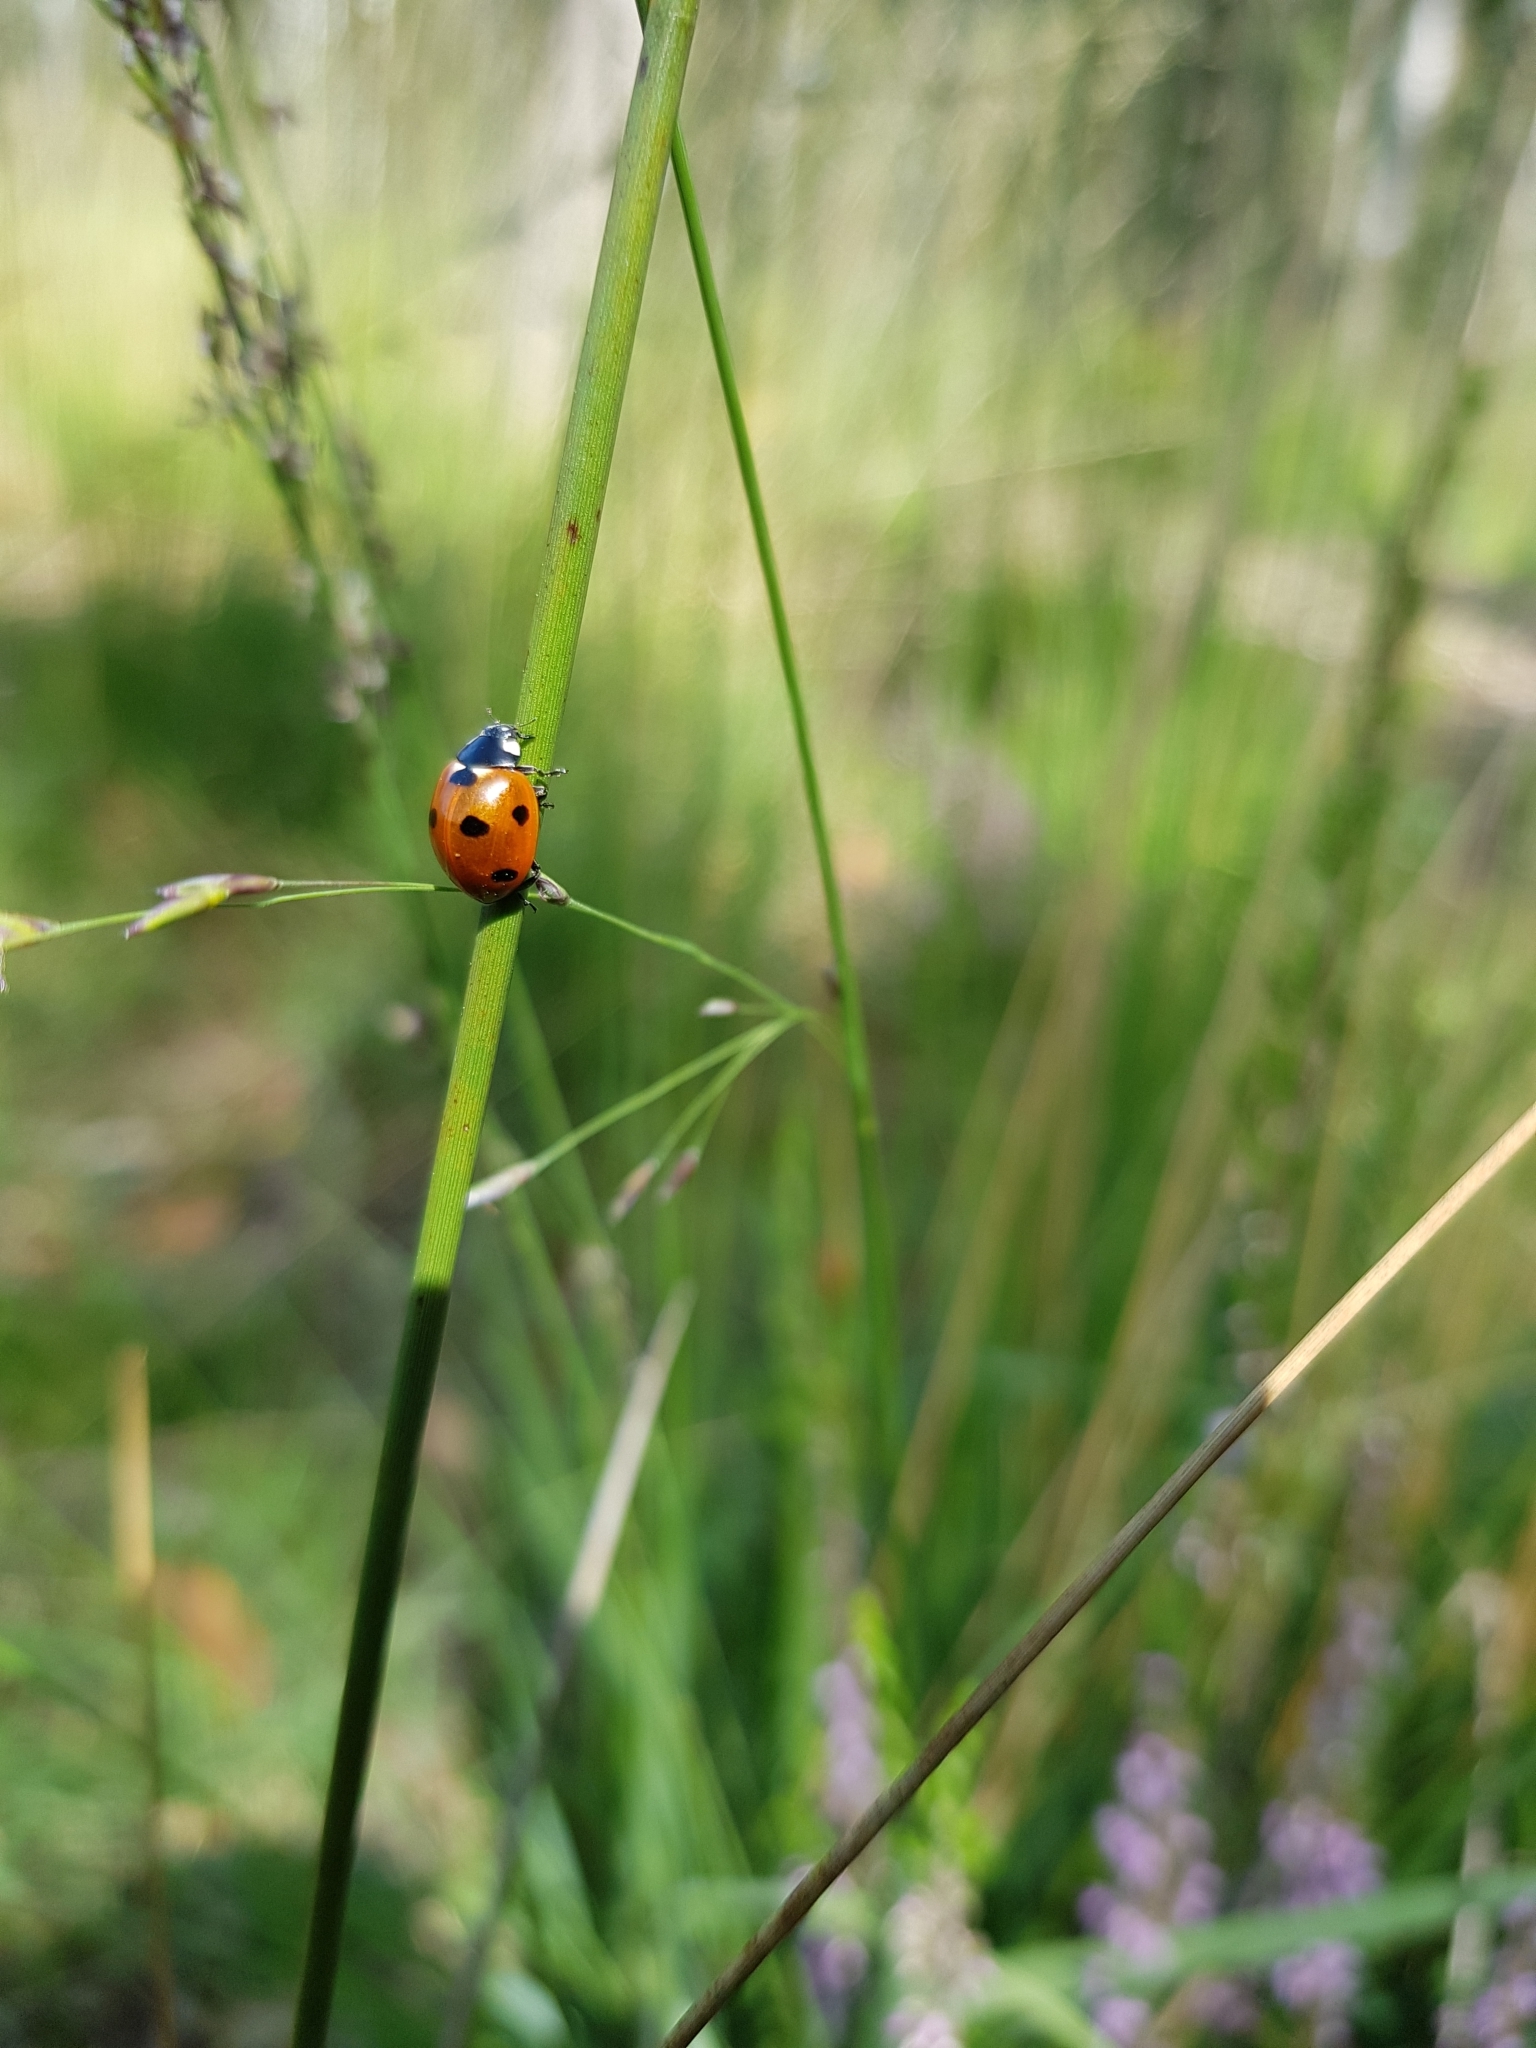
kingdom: Animalia
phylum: Arthropoda
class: Insecta
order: Coleoptera
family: Coccinellidae
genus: Coccinella
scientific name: Coccinella septempunctata
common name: Sevenspotted lady beetle
